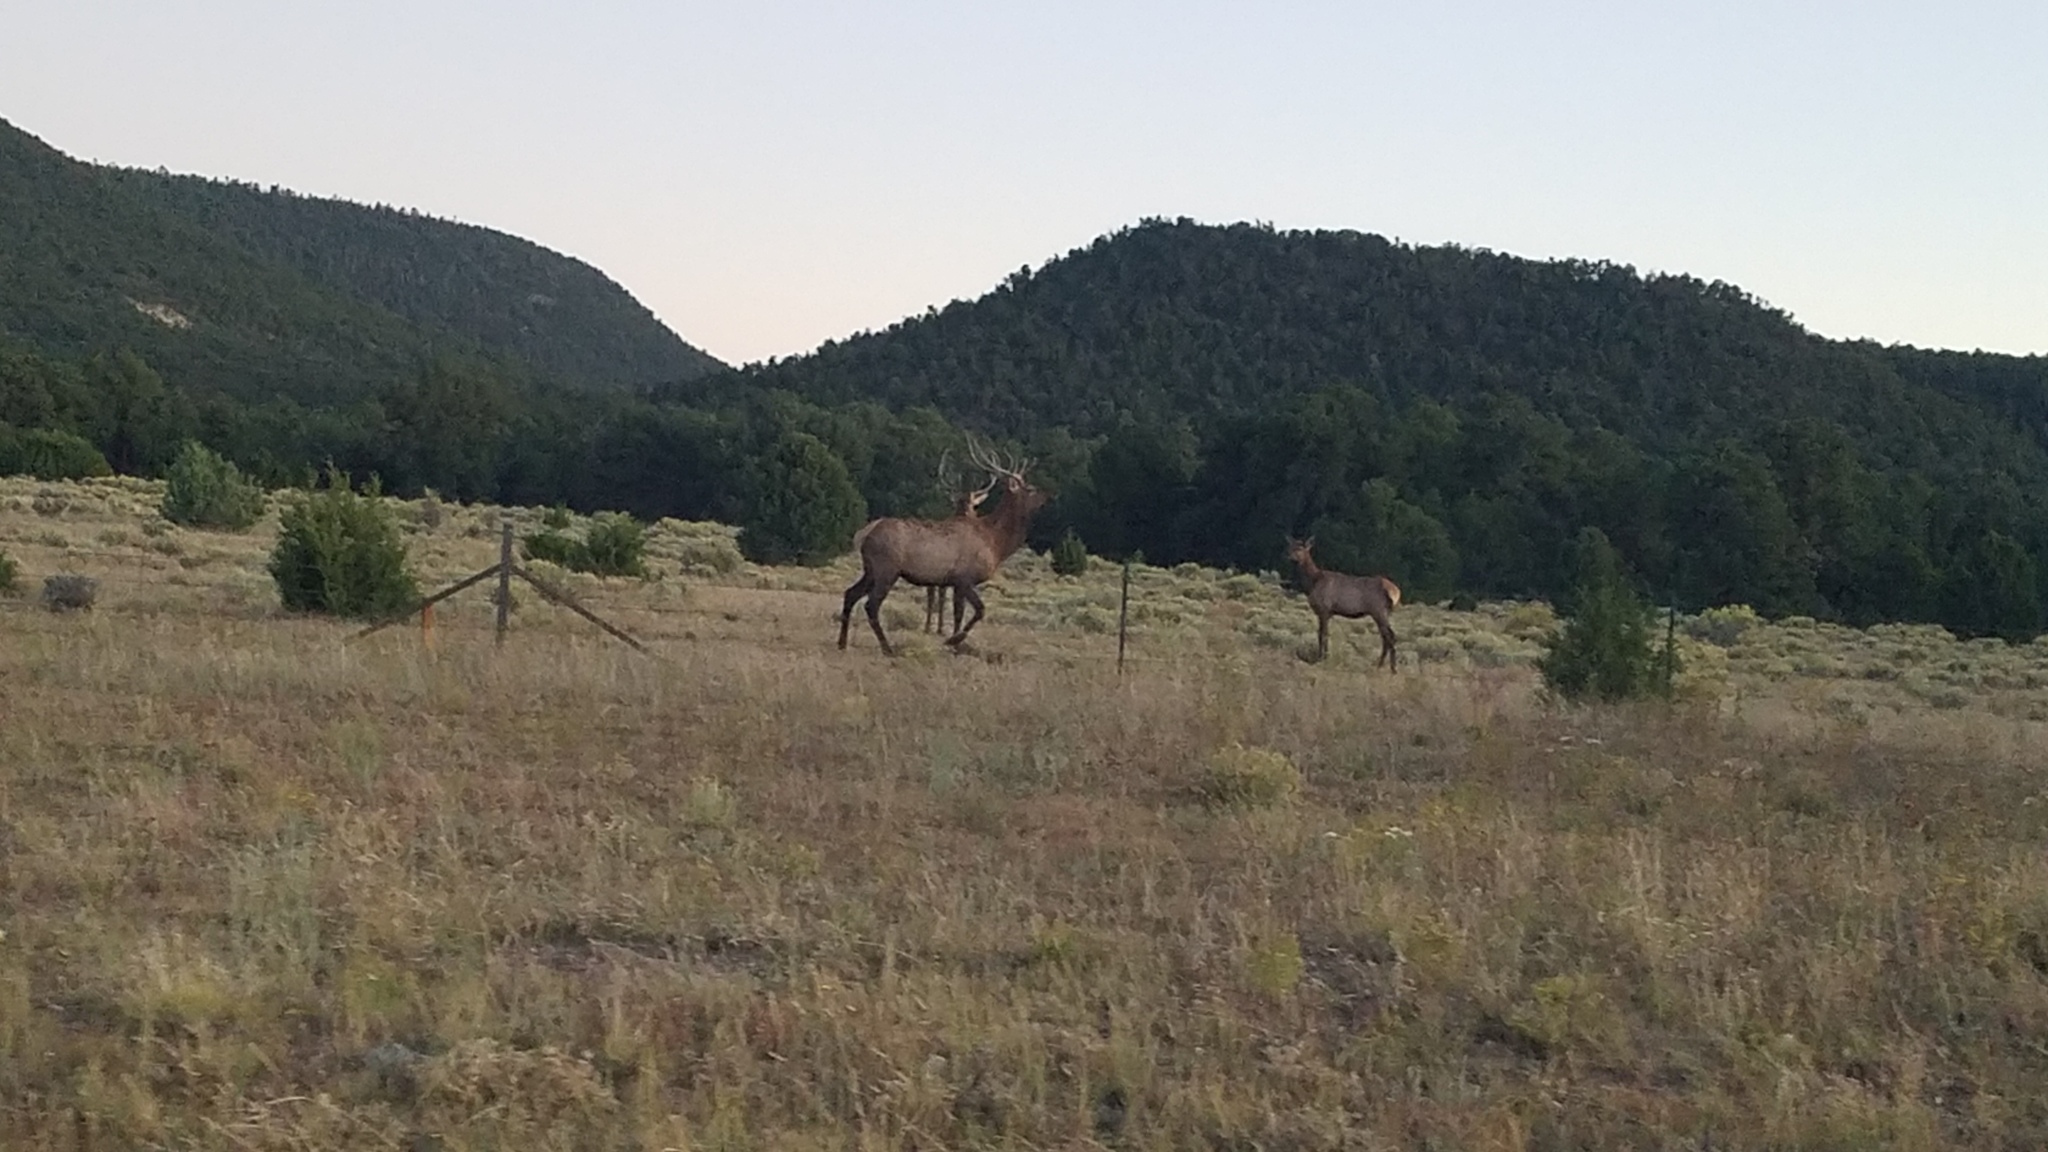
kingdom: Animalia
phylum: Chordata
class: Mammalia
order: Artiodactyla
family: Cervidae
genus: Cervus
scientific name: Cervus elaphus
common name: Red deer
